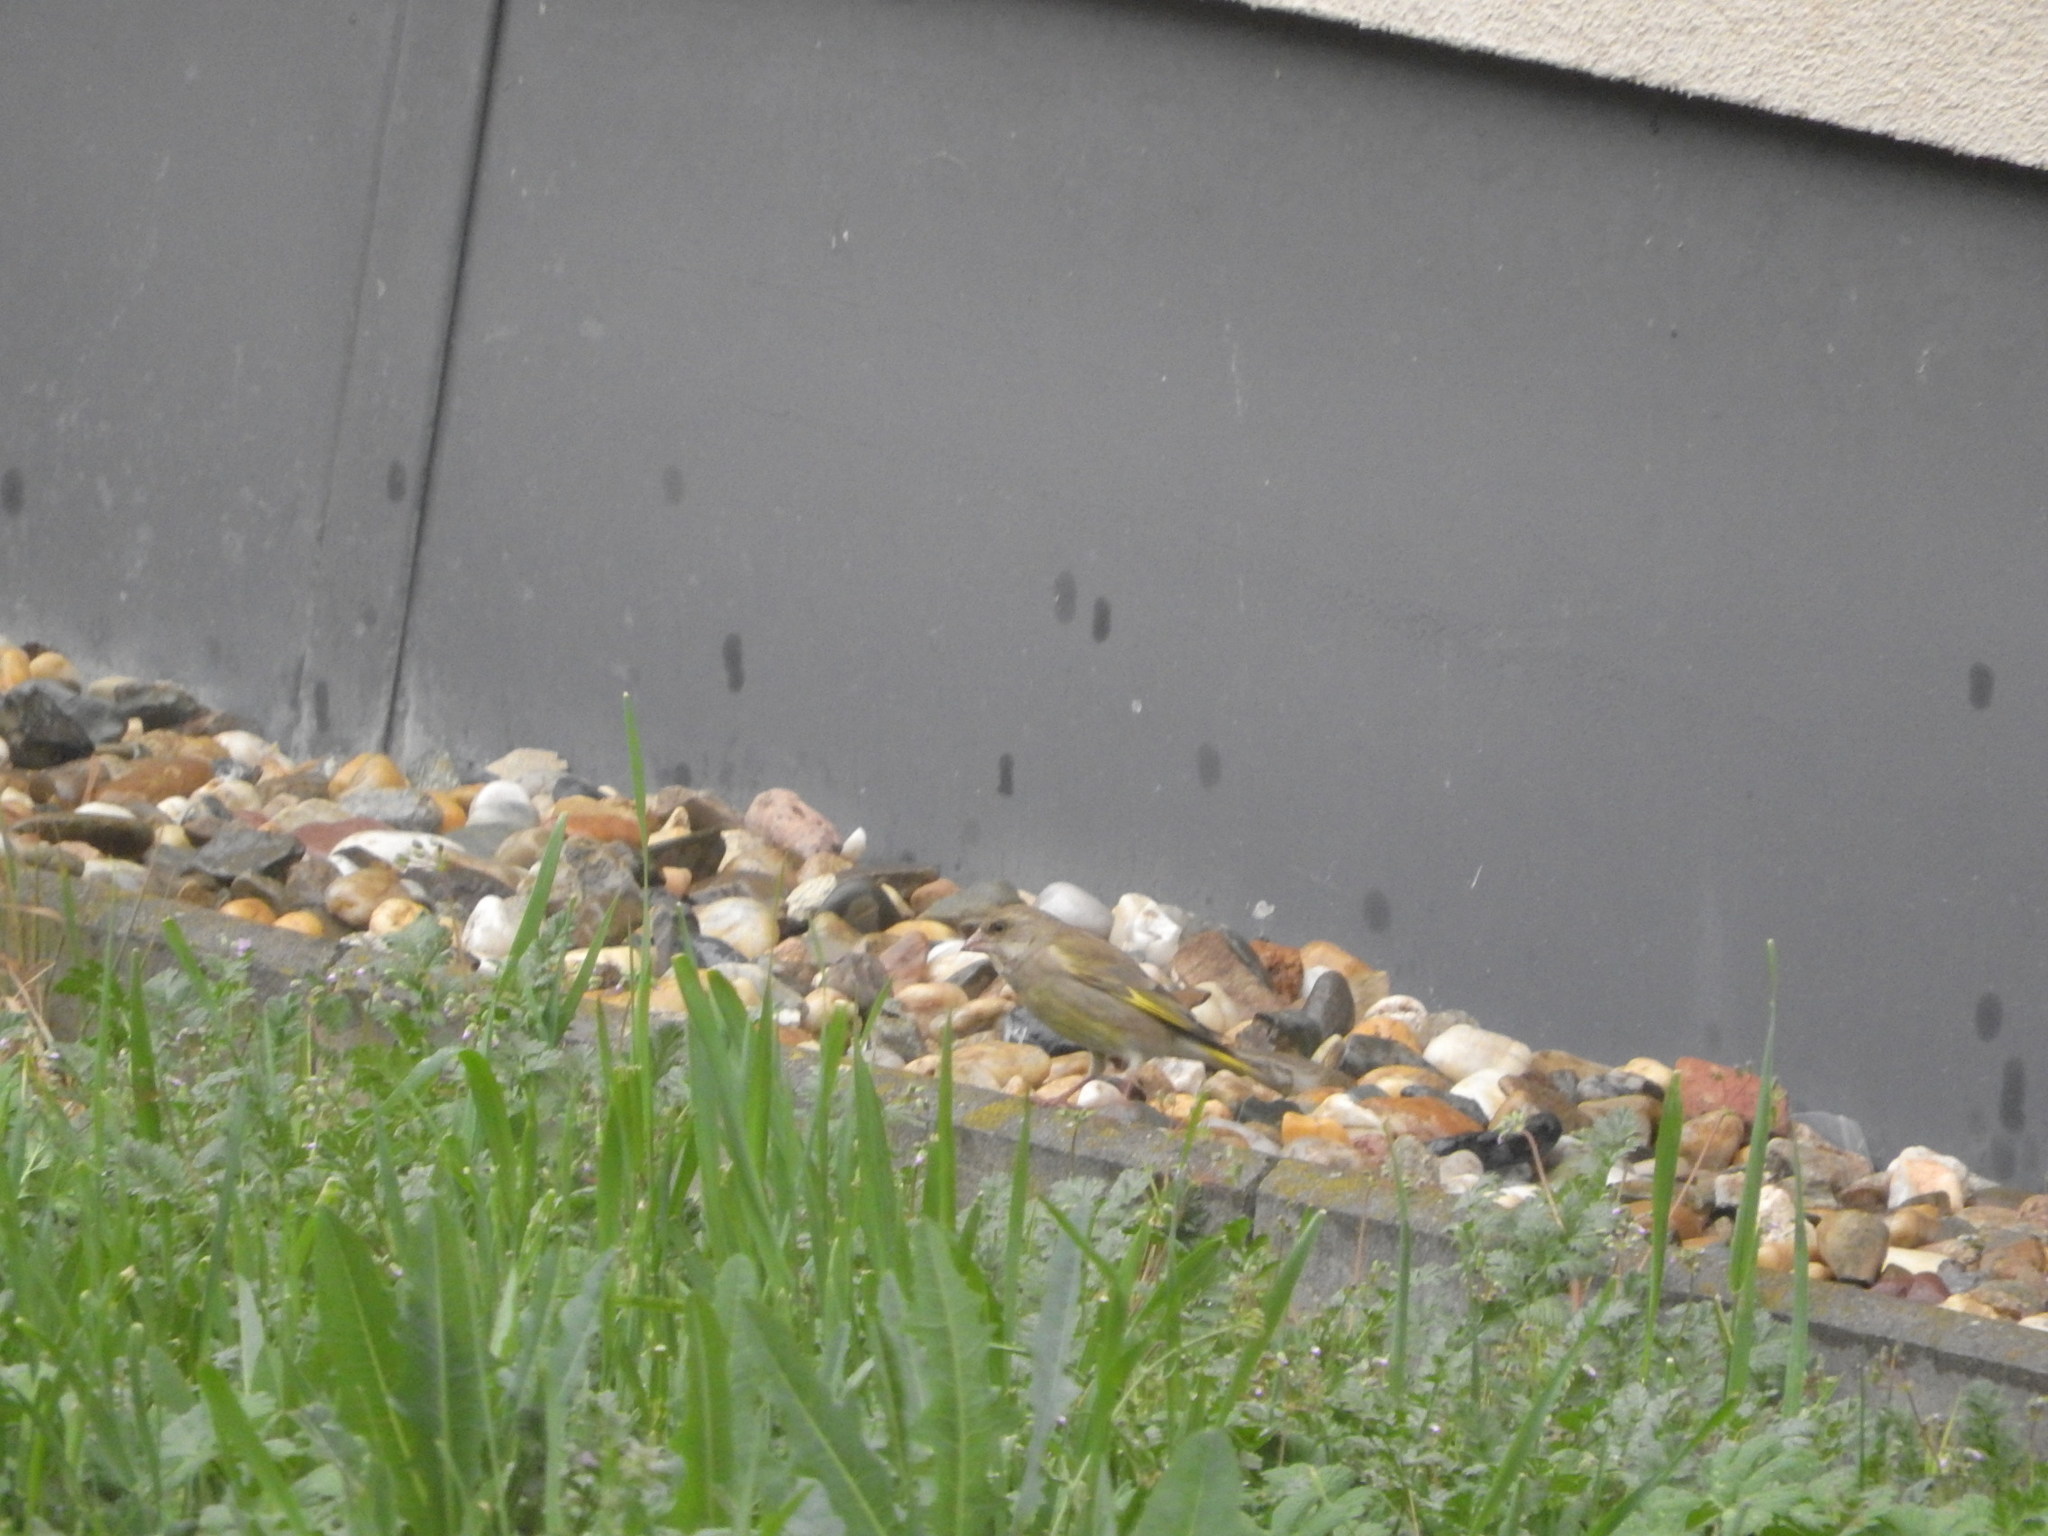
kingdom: Plantae
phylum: Tracheophyta
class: Liliopsida
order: Poales
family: Poaceae
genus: Chloris
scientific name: Chloris chloris
